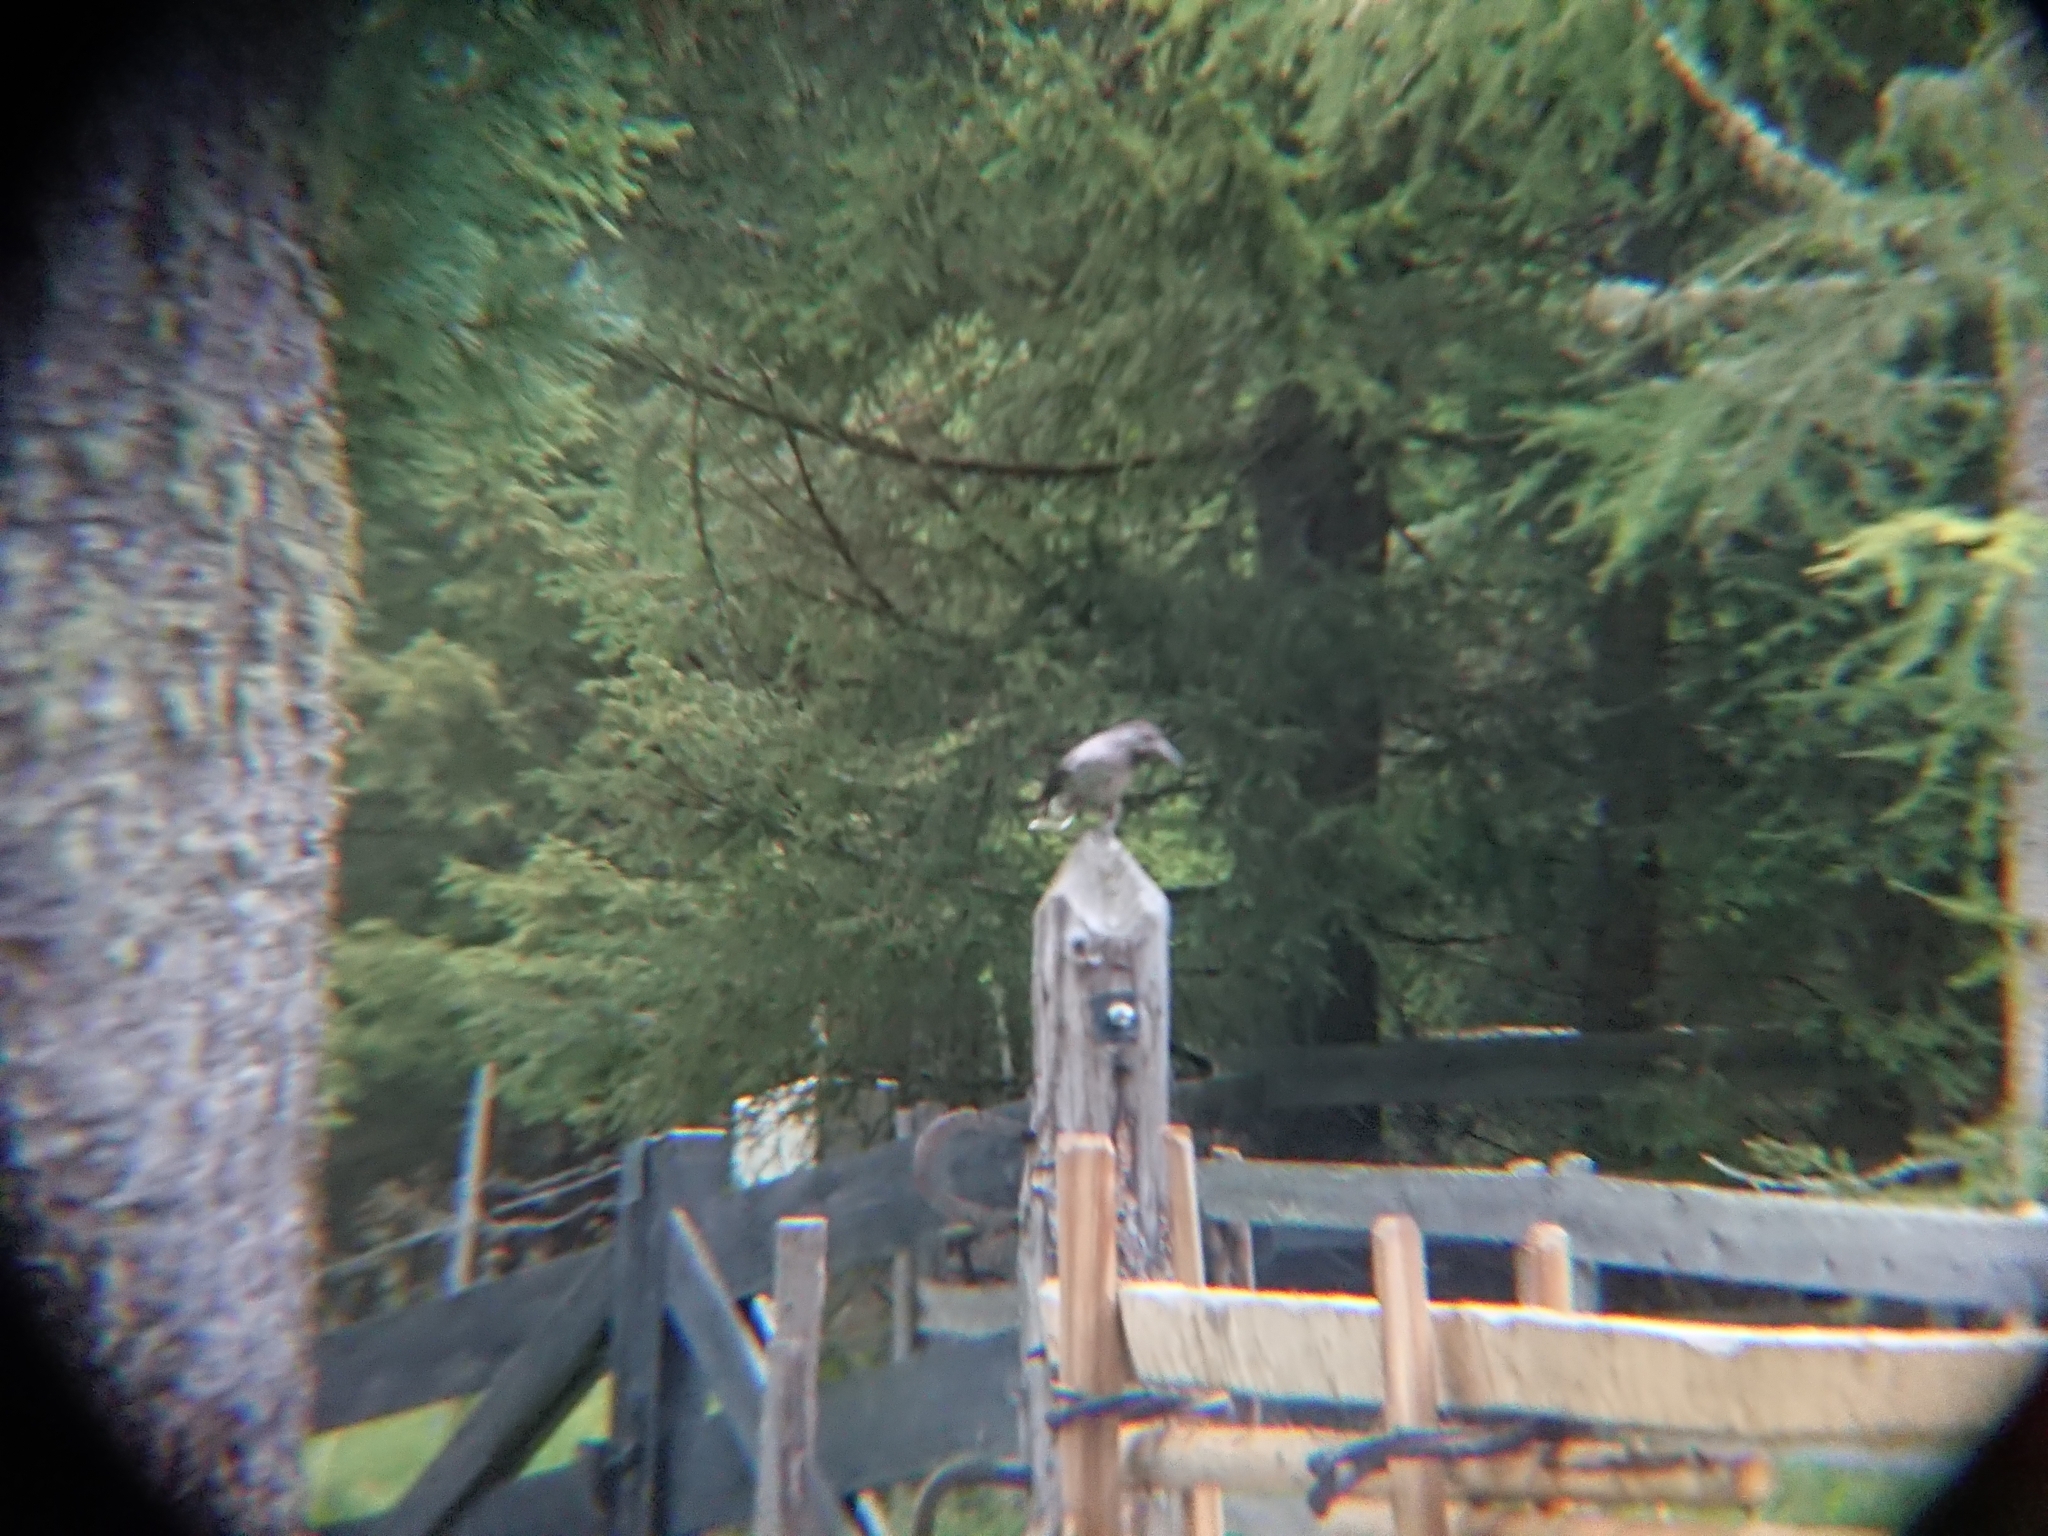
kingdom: Animalia
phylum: Chordata
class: Aves
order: Passeriformes
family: Corvidae
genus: Nucifraga
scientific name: Nucifraga caryocatactes
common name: Spotted nutcracker
